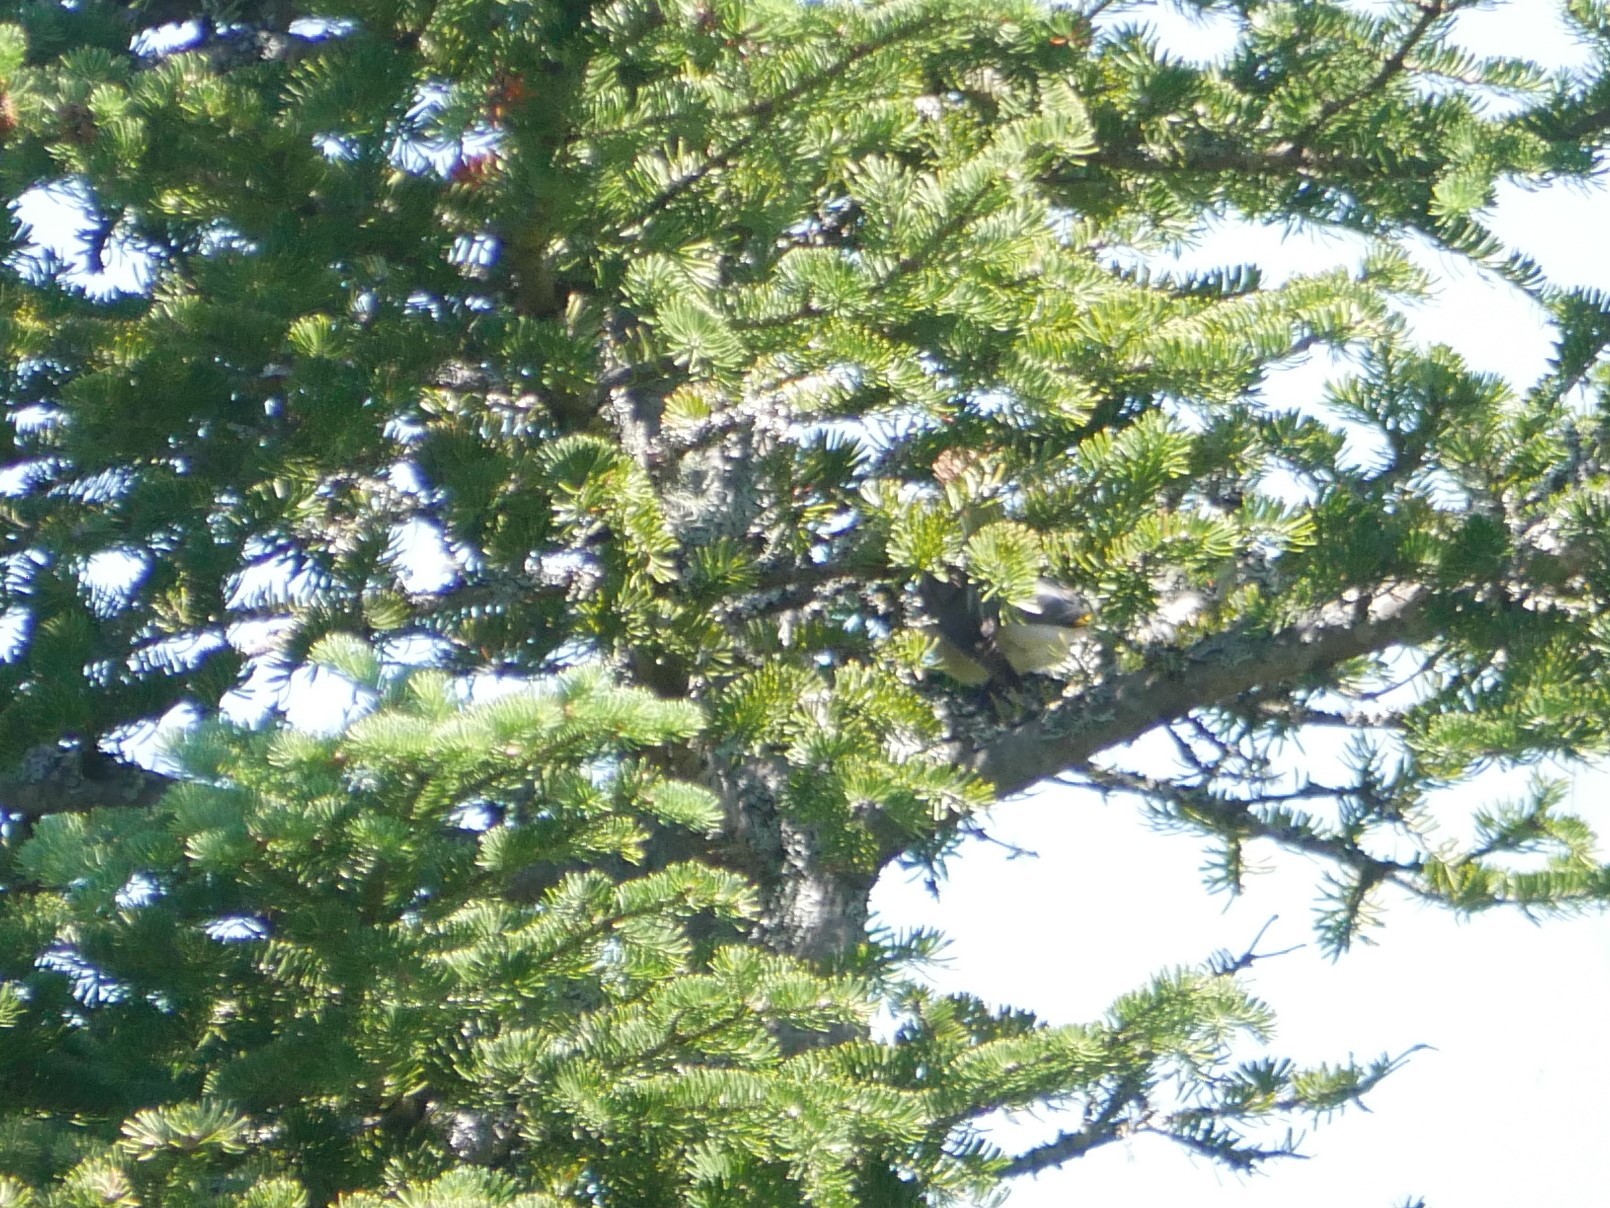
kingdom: Animalia
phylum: Chordata
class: Aves
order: Passeriformes
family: Bombycillidae
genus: Bombycilla
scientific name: Bombycilla cedrorum
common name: Cedar waxwing
